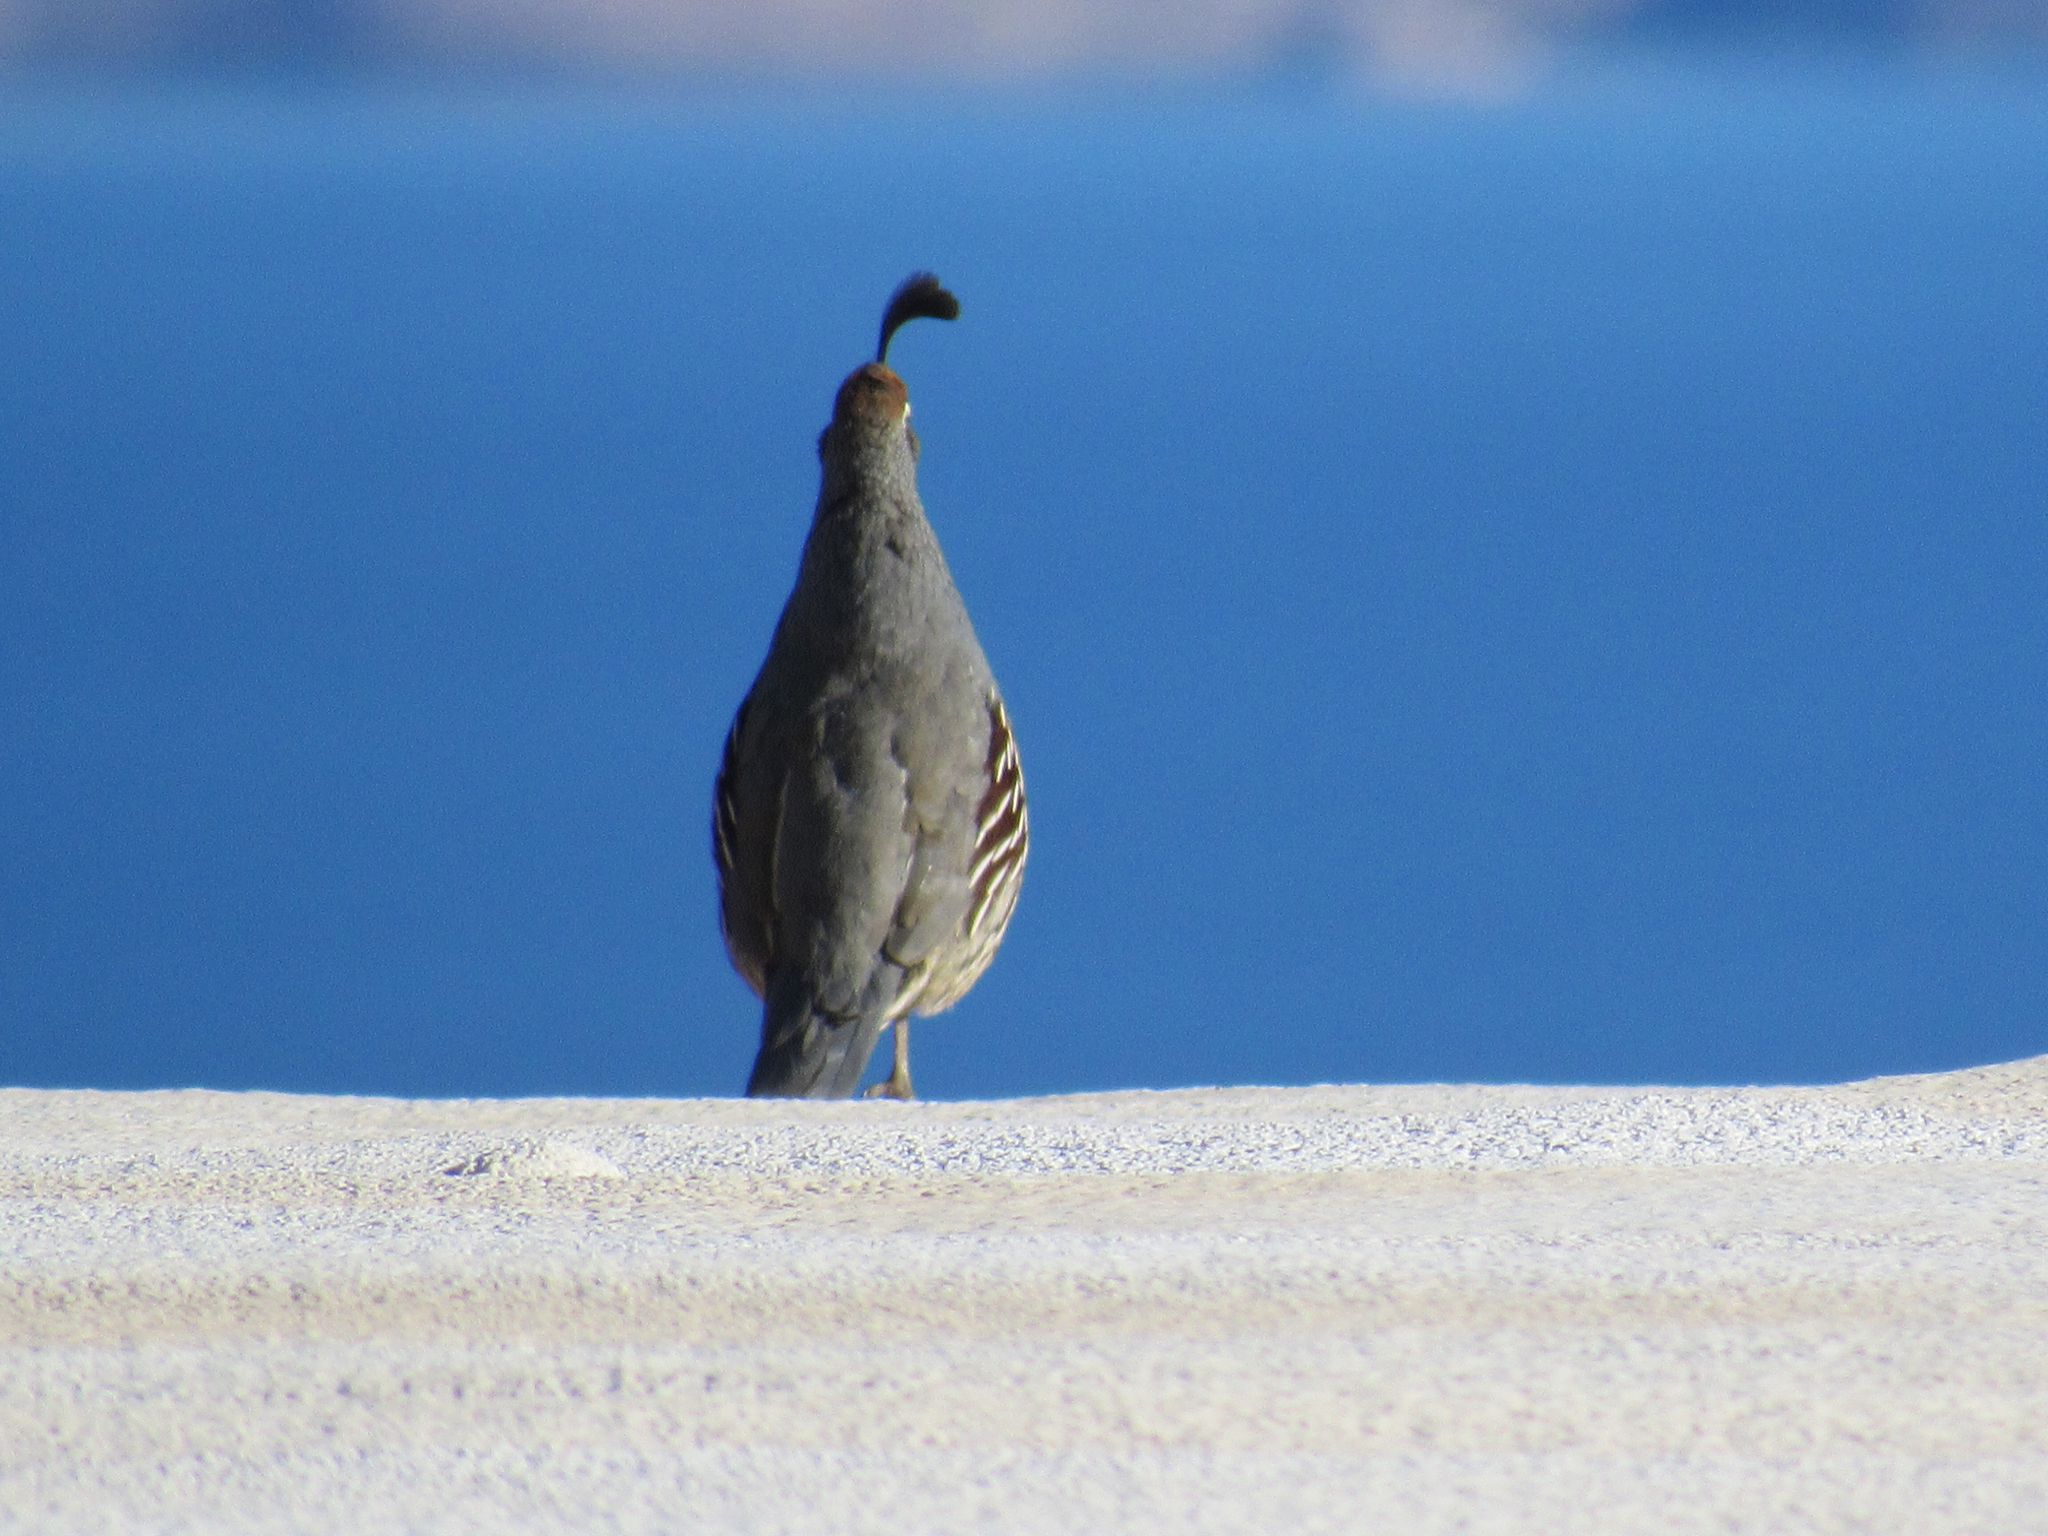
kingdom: Animalia
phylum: Chordata
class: Aves
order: Galliformes
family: Odontophoridae
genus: Callipepla
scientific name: Callipepla gambelii
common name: Gambel's quail
